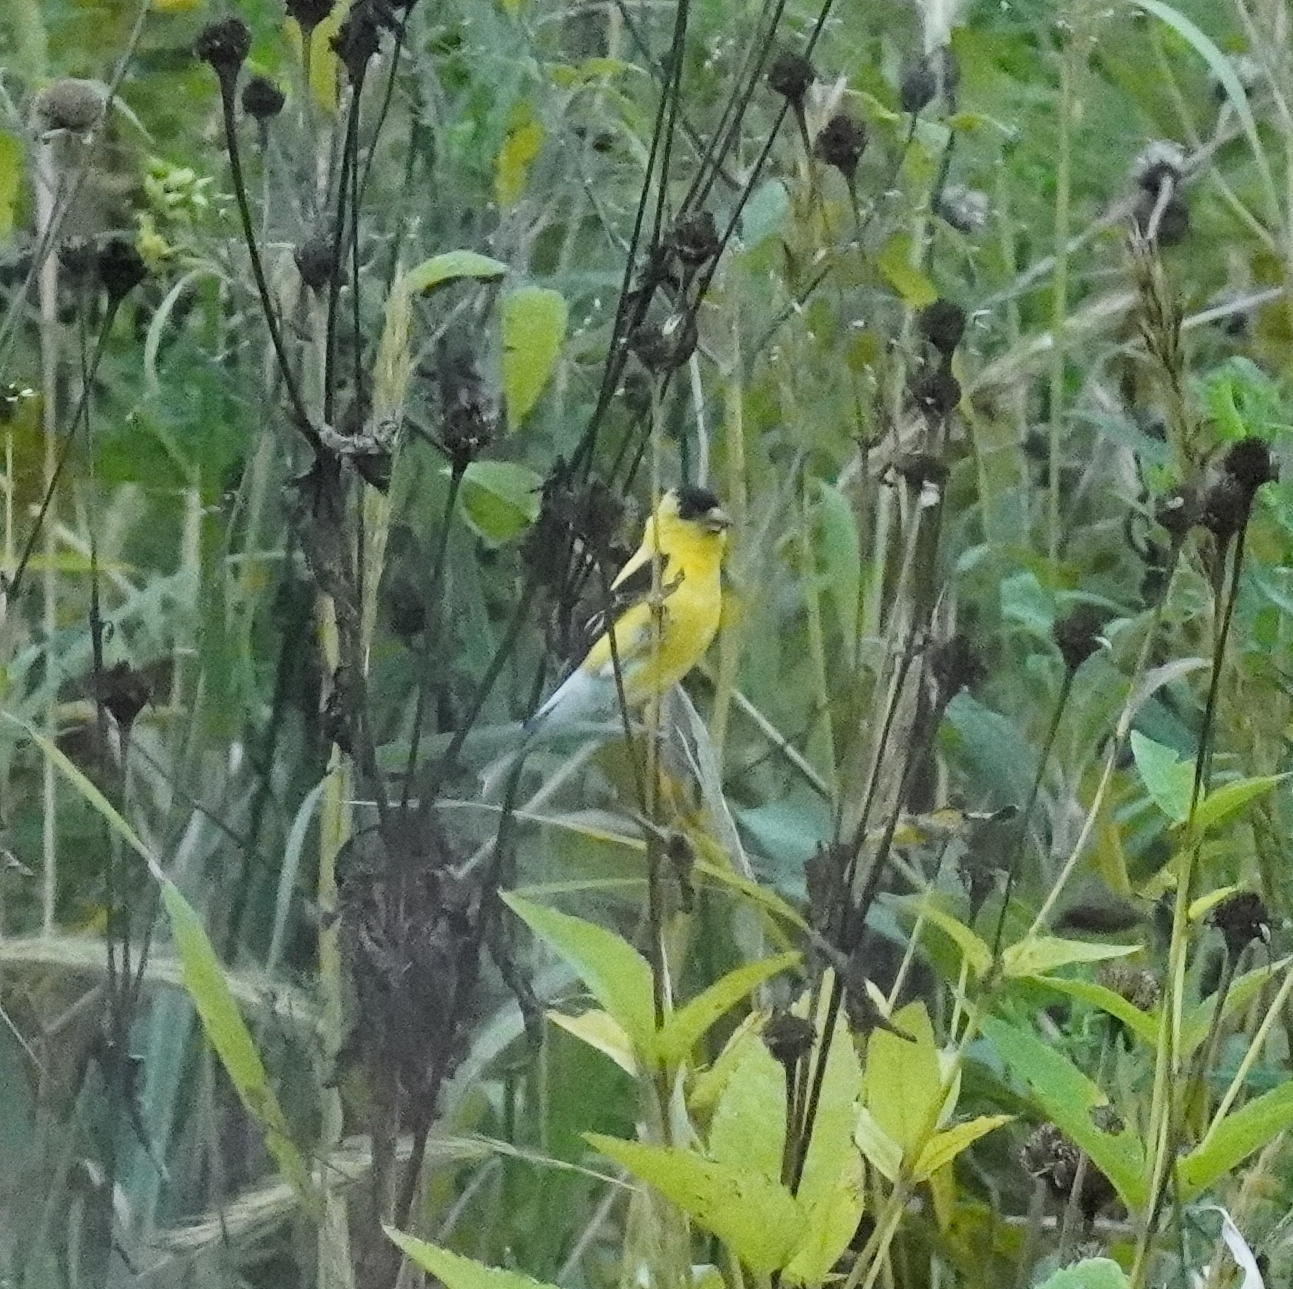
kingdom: Animalia
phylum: Chordata
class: Aves
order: Passeriformes
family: Fringillidae
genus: Spinus
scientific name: Spinus tristis
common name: American goldfinch
